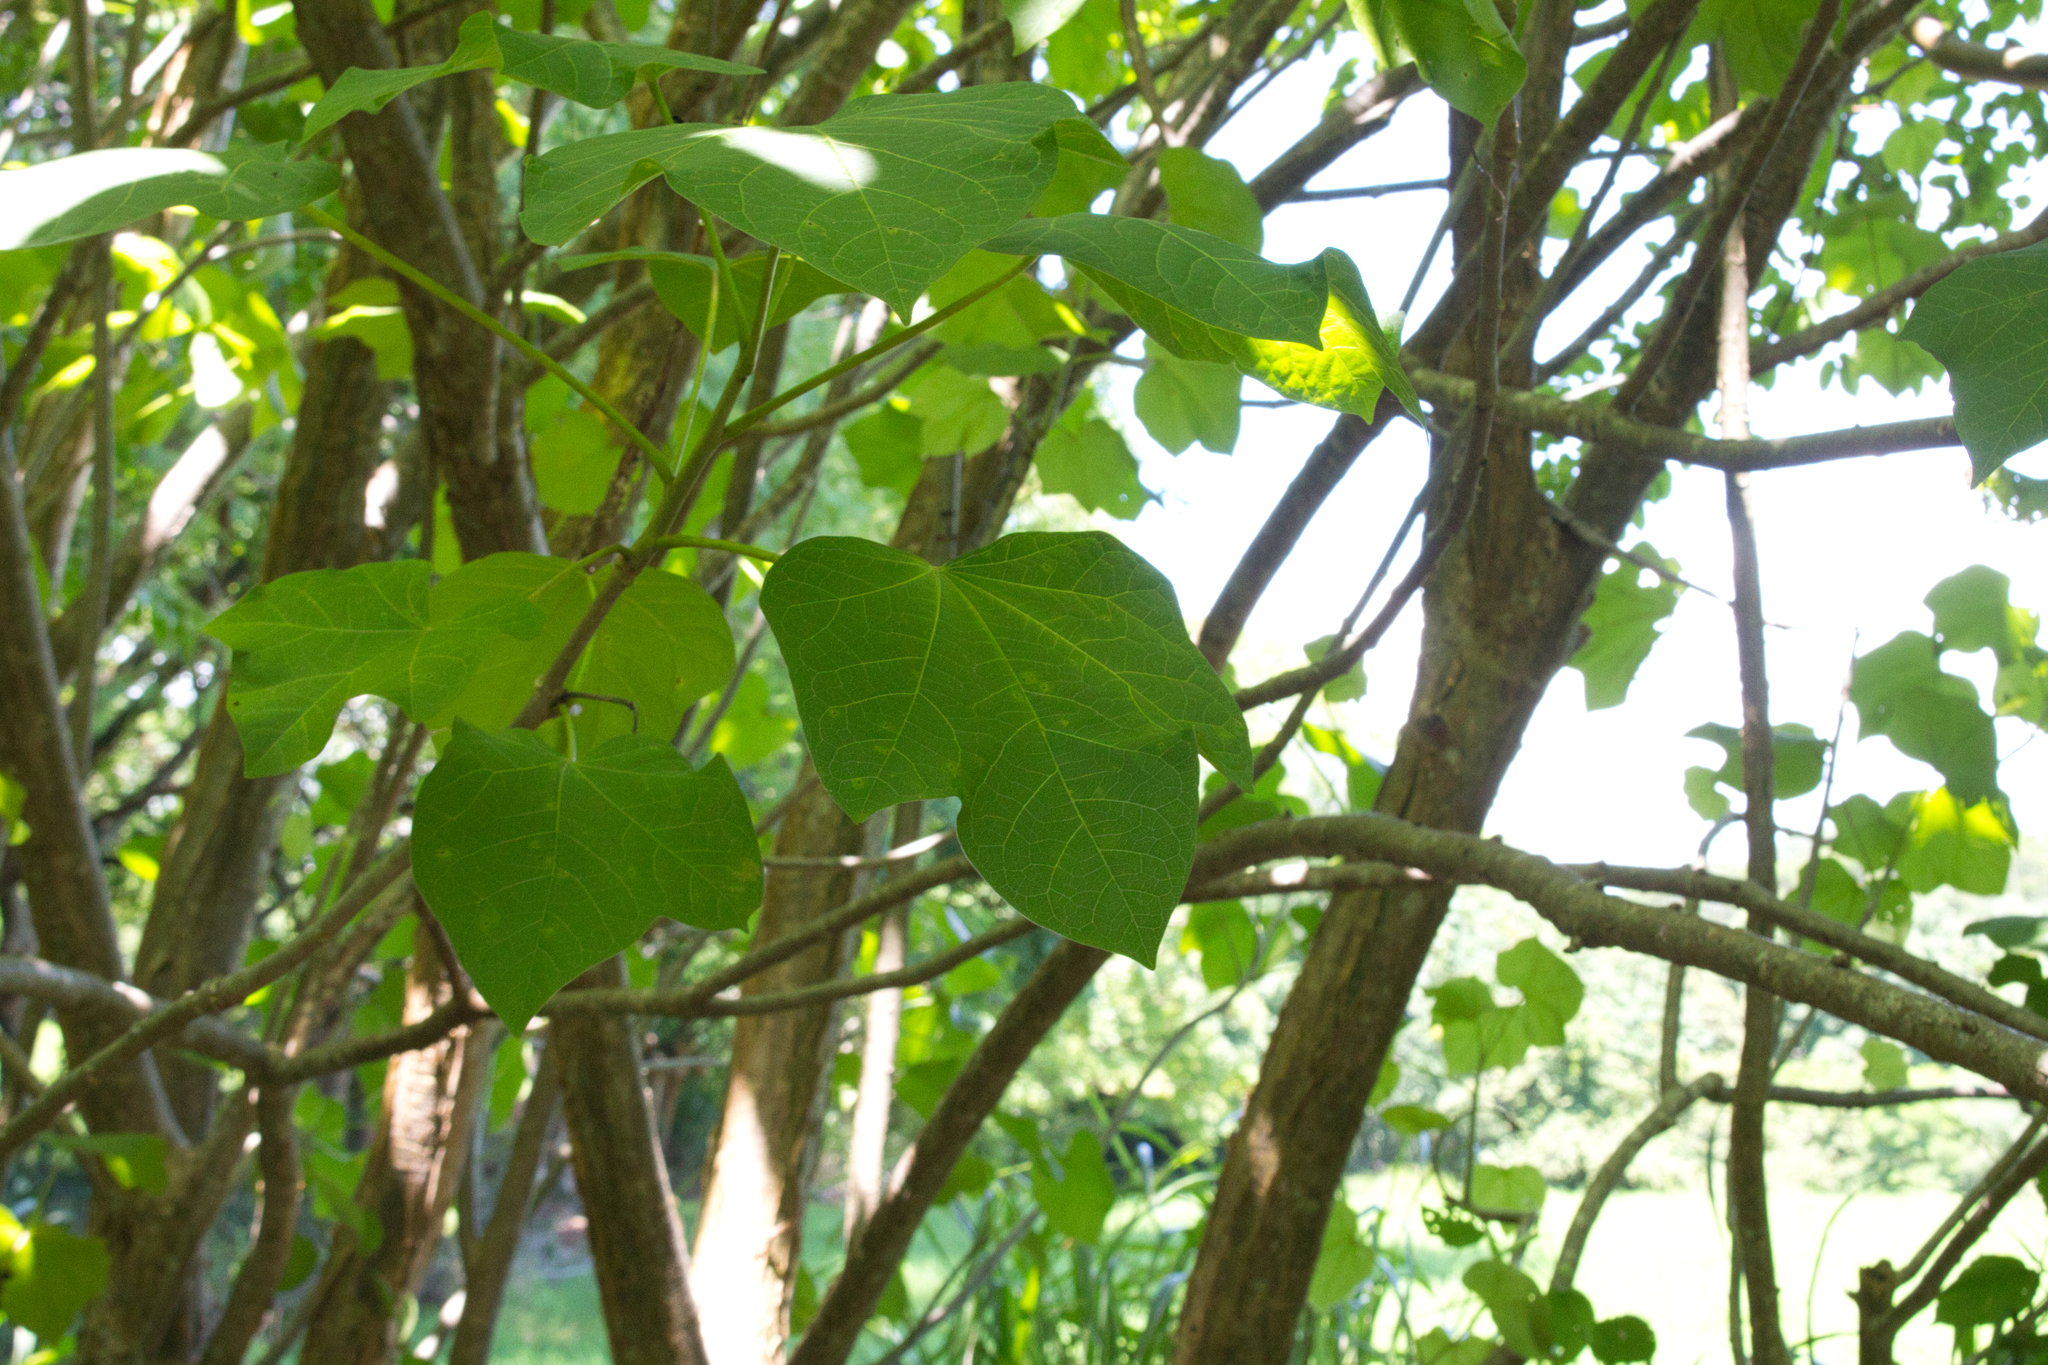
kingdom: Plantae
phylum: Tracheophyta
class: Magnoliopsida
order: Malpighiales
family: Euphorbiaceae
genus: Jatropha
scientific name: Jatropha curcas
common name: Barbados nut
